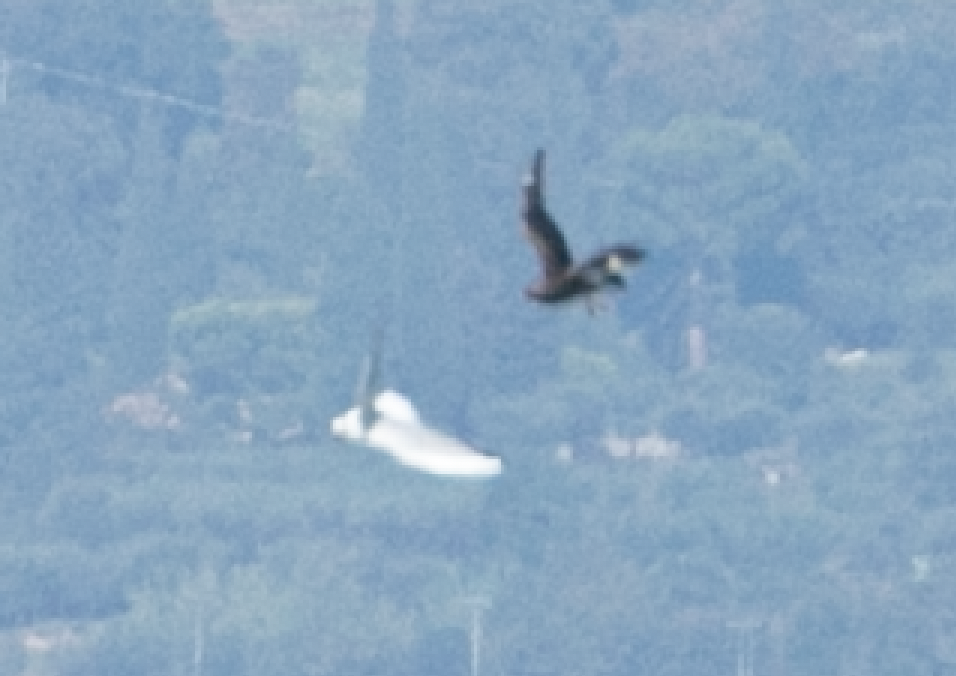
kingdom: Animalia
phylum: Chordata
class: Aves
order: Charadriiformes
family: Stercorariidae
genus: Stercorarius
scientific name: Stercorarius parasiticus
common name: Parasitic jaeger
